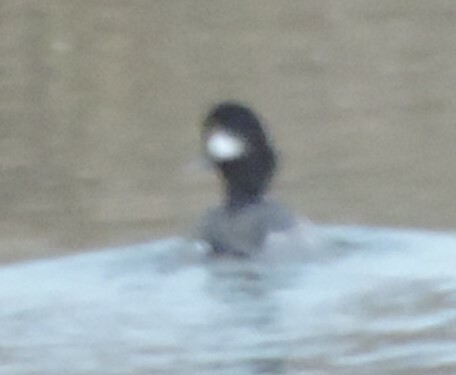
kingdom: Animalia
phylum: Chordata
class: Aves
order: Anseriformes
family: Anatidae
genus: Bucephala
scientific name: Bucephala albeola
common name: Bufflehead
